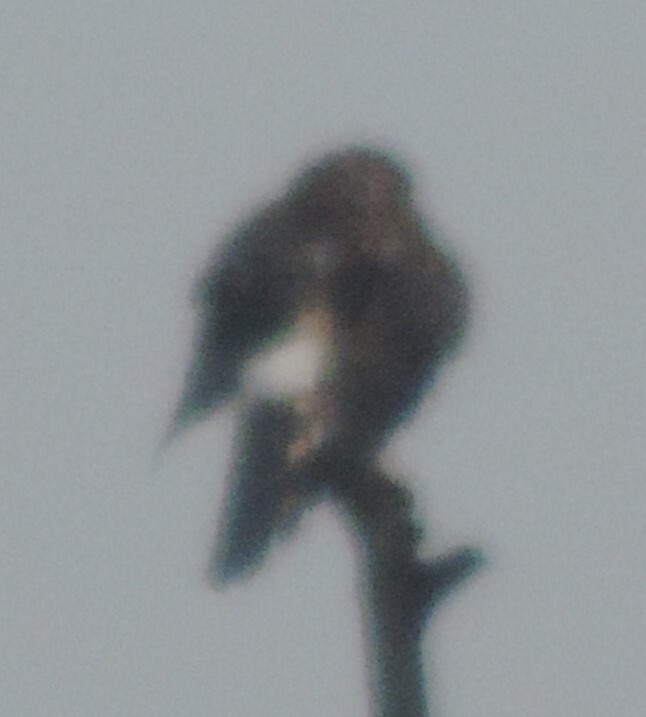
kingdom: Animalia
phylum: Chordata
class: Aves
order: Accipitriformes
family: Accipitridae
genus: Circus
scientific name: Circus cyaneus
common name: Hen harrier
